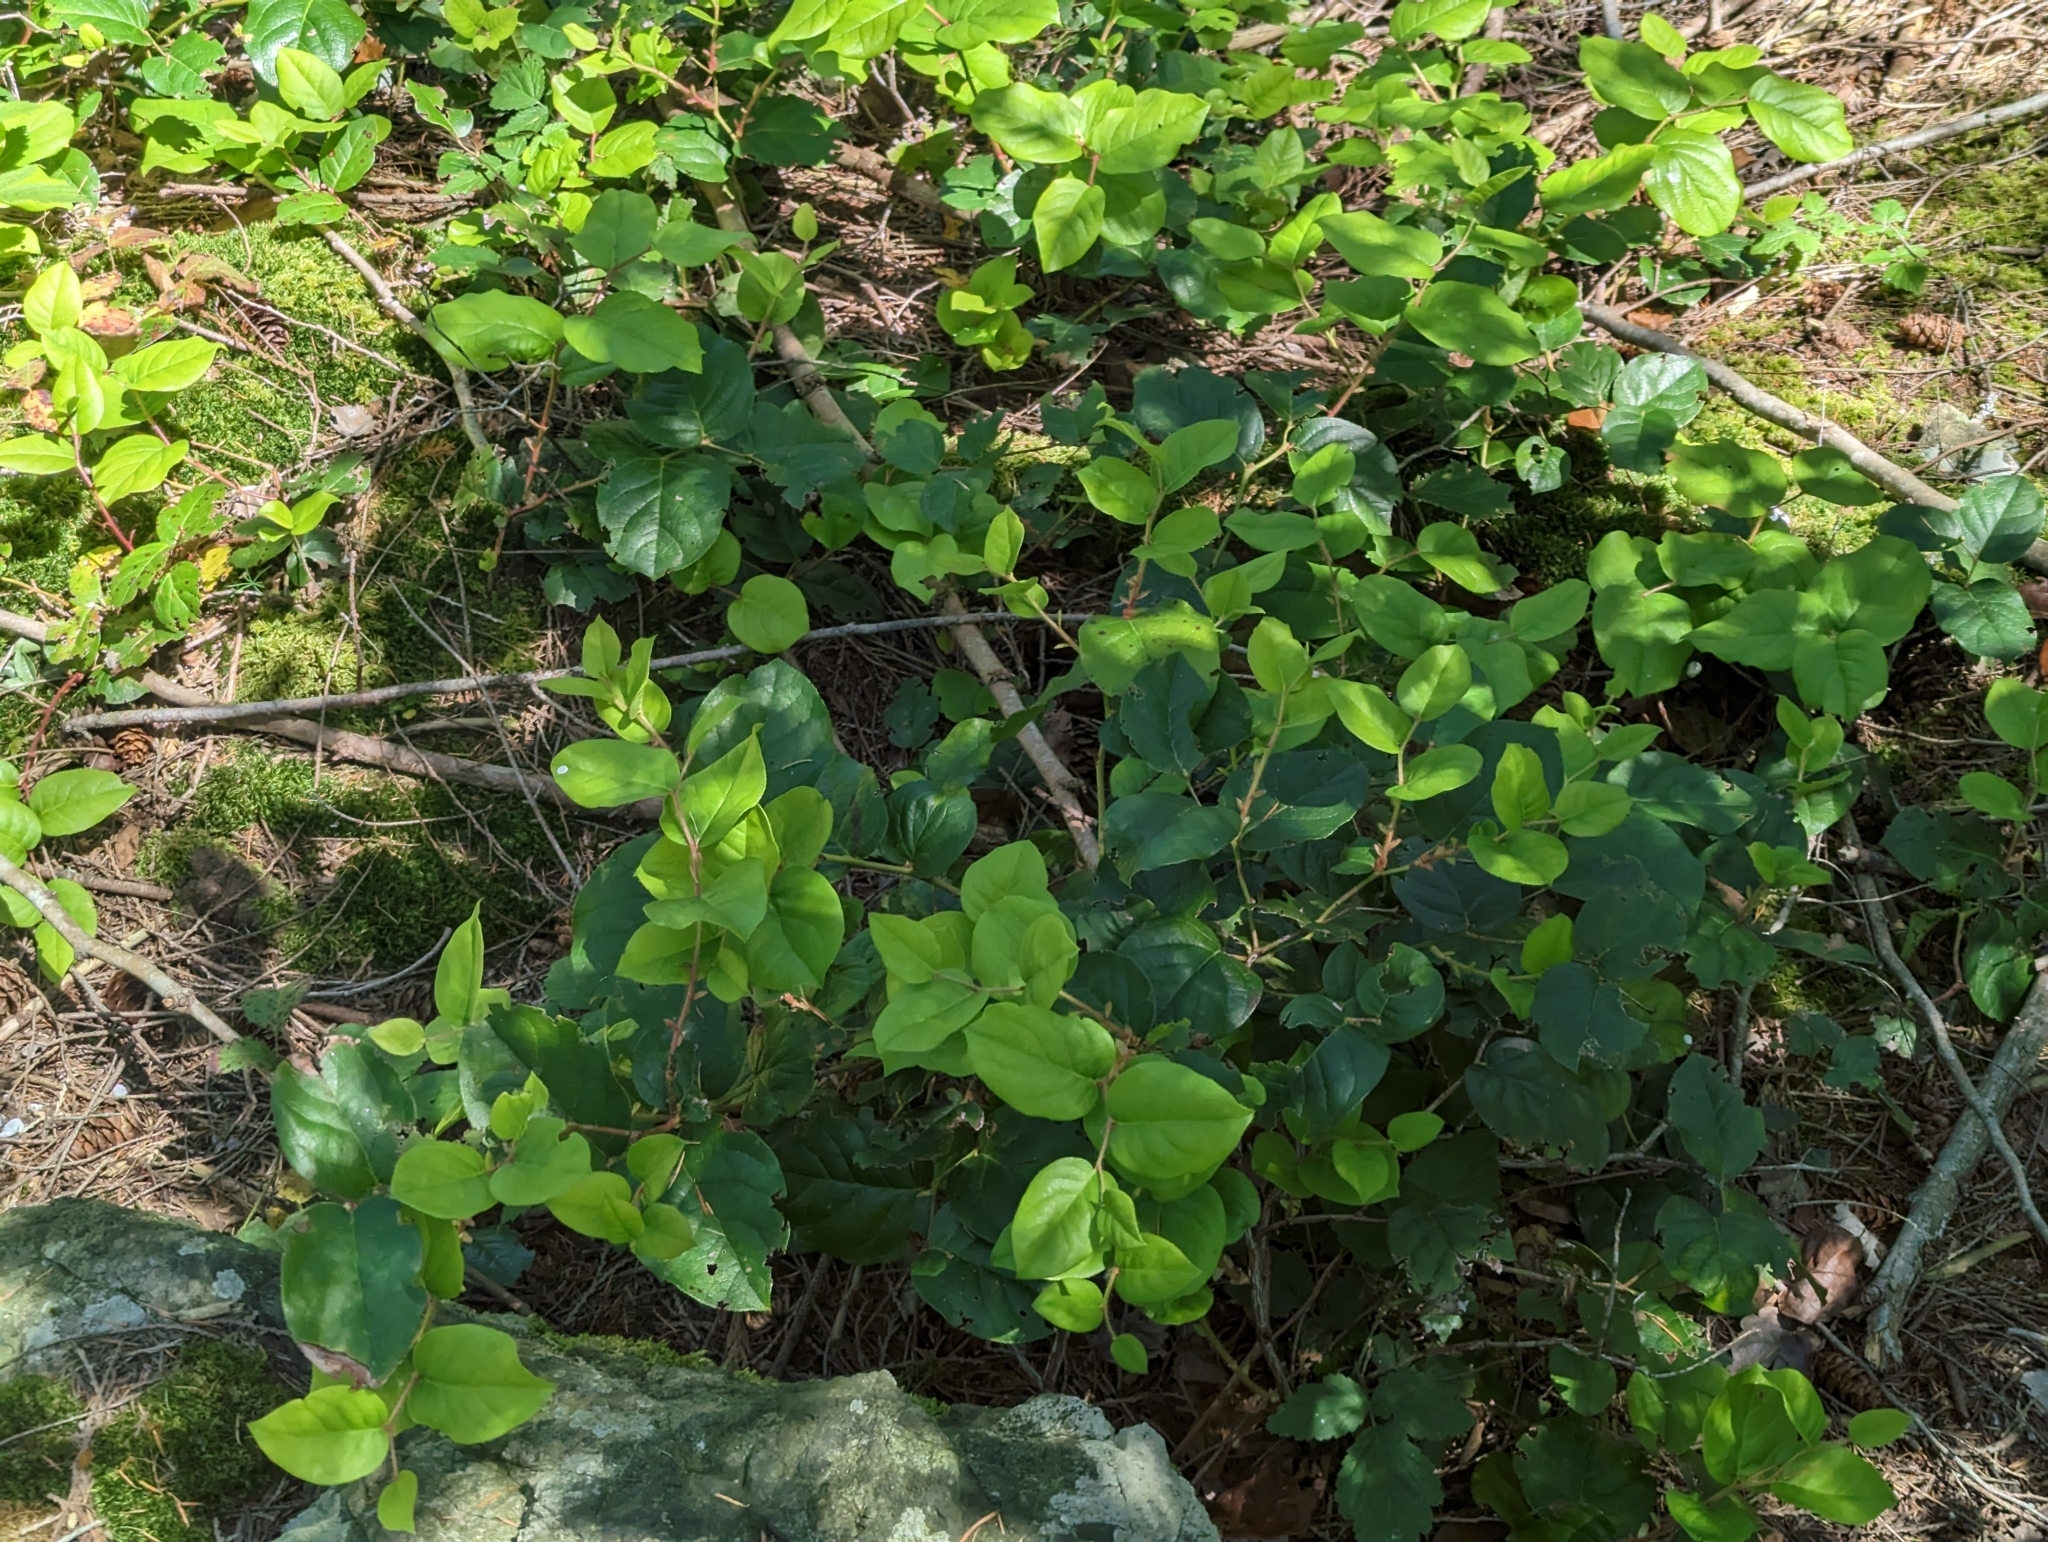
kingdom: Plantae
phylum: Tracheophyta
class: Magnoliopsida
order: Ericales
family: Ericaceae
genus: Gaultheria
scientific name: Gaultheria shallon
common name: Shallon
